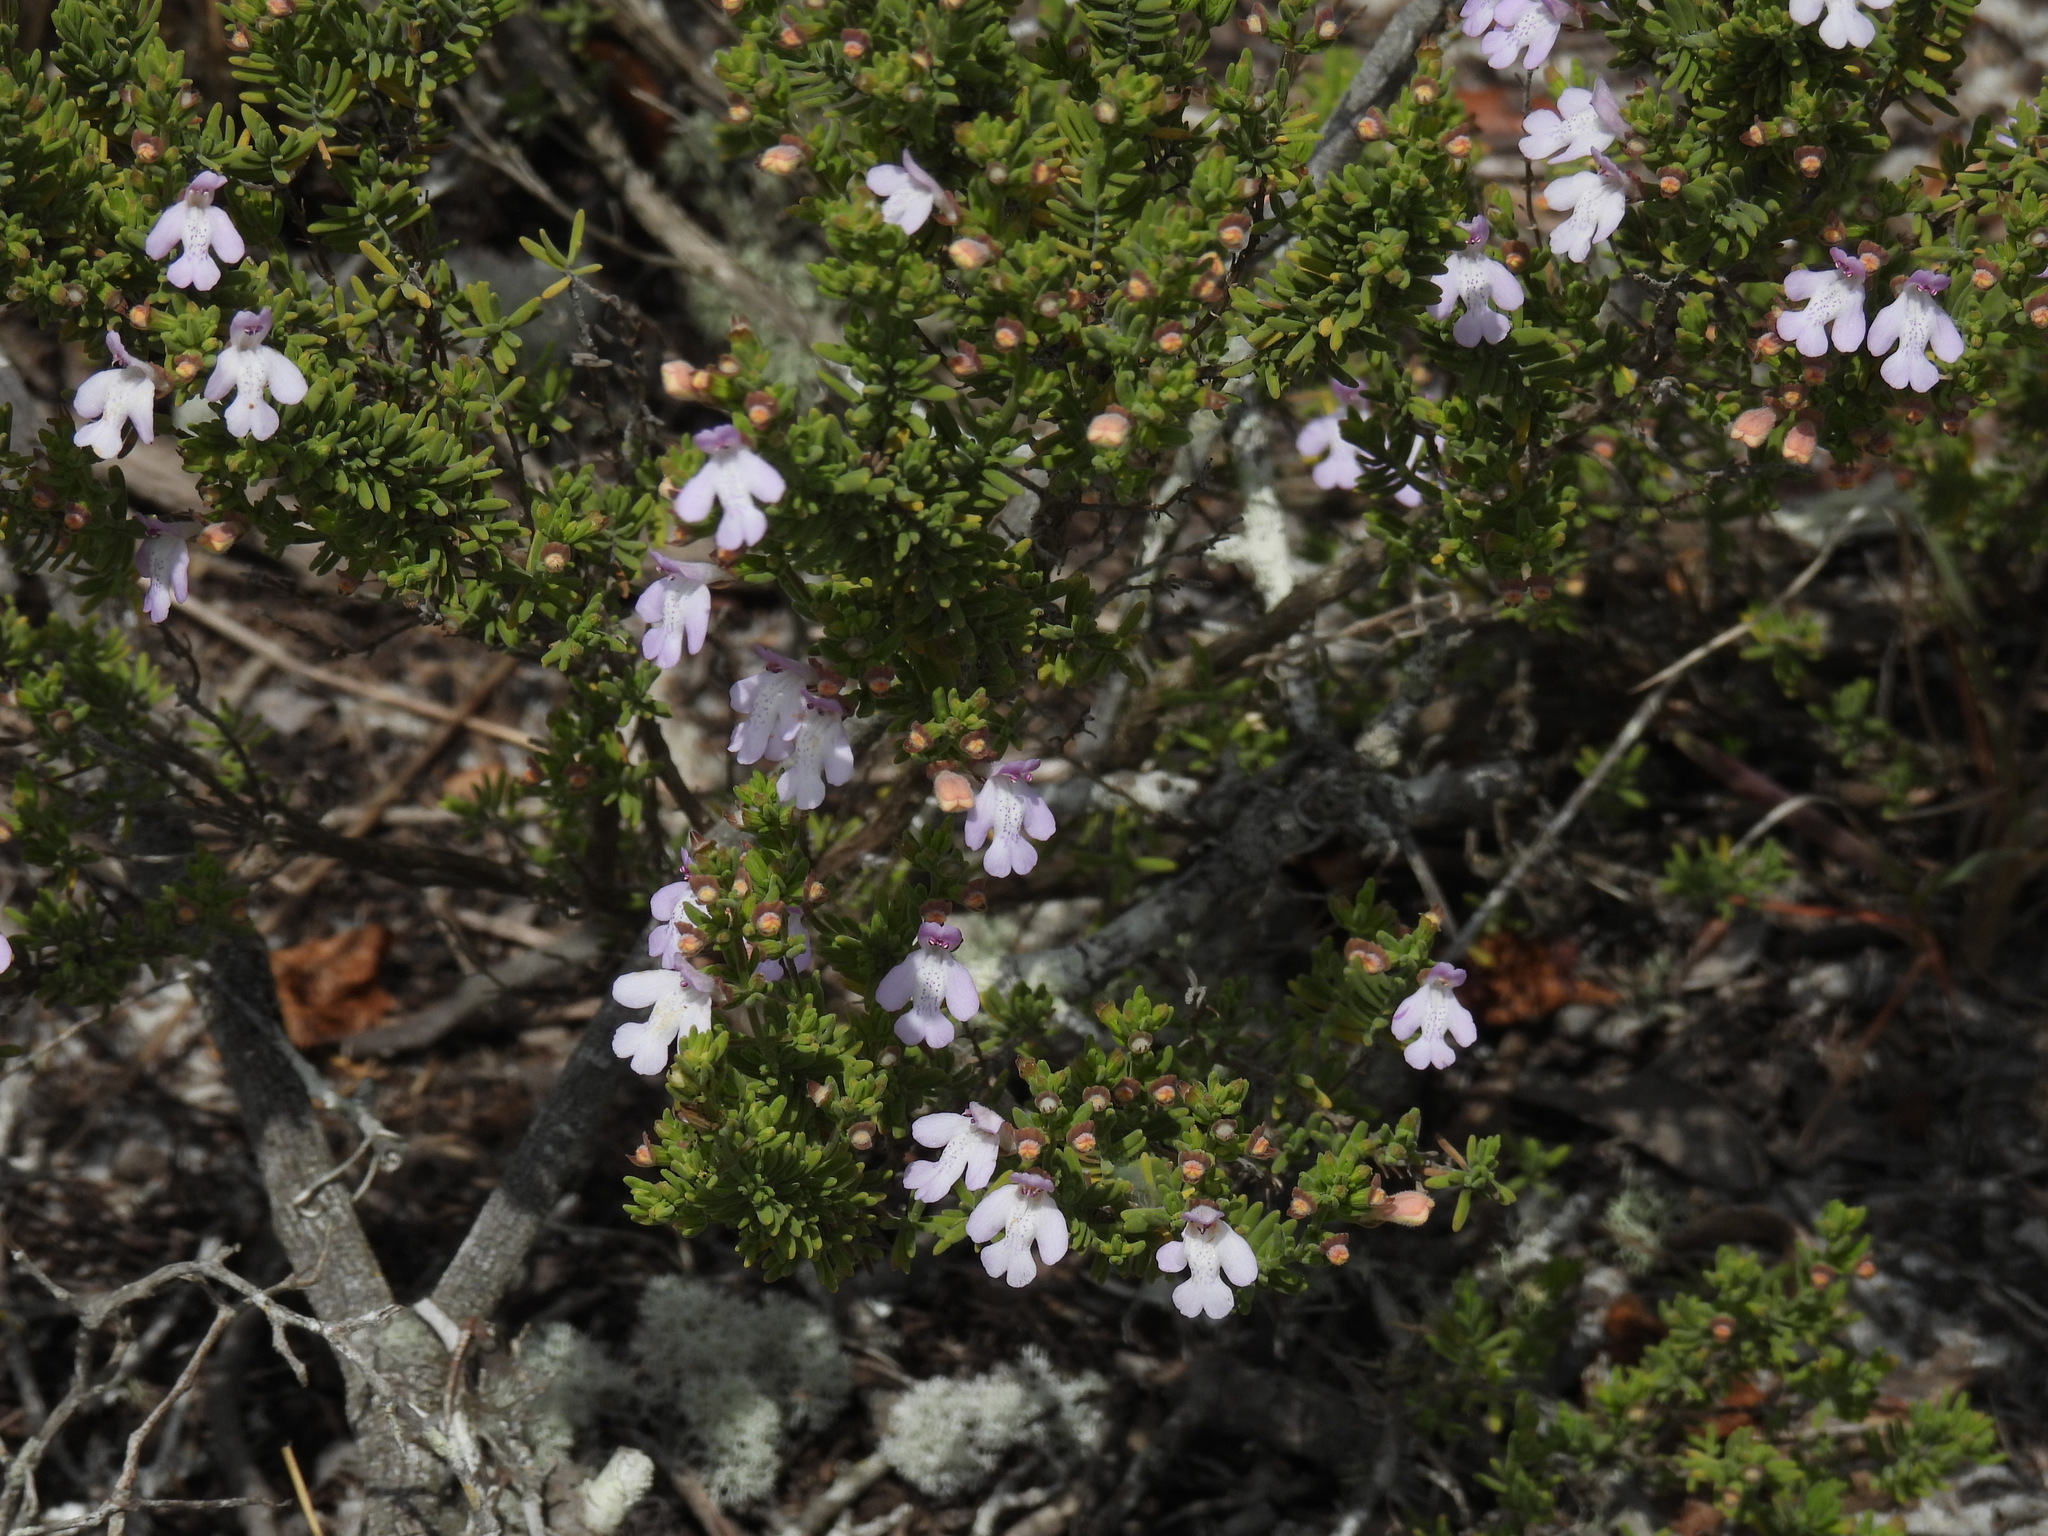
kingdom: Plantae
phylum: Tracheophyta
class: Magnoliopsida
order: Lamiales
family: Lamiaceae
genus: Clinopodium
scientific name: Clinopodium ashei
